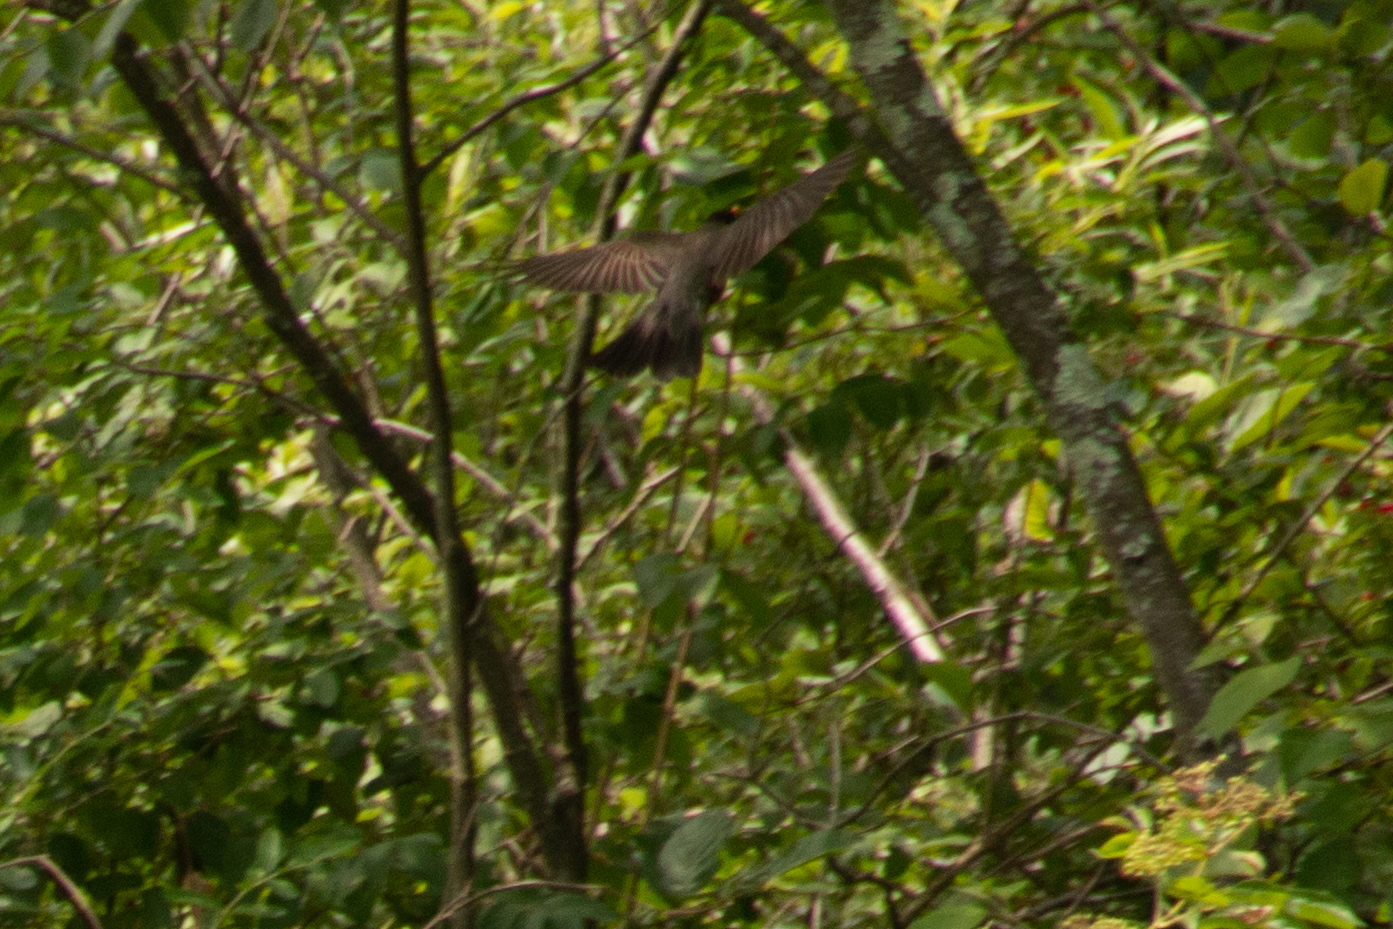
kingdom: Animalia
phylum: Chordata
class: Aves
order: Passeriformes
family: Turdidae
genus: Turdus
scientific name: Turdus migratorius
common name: American robin
